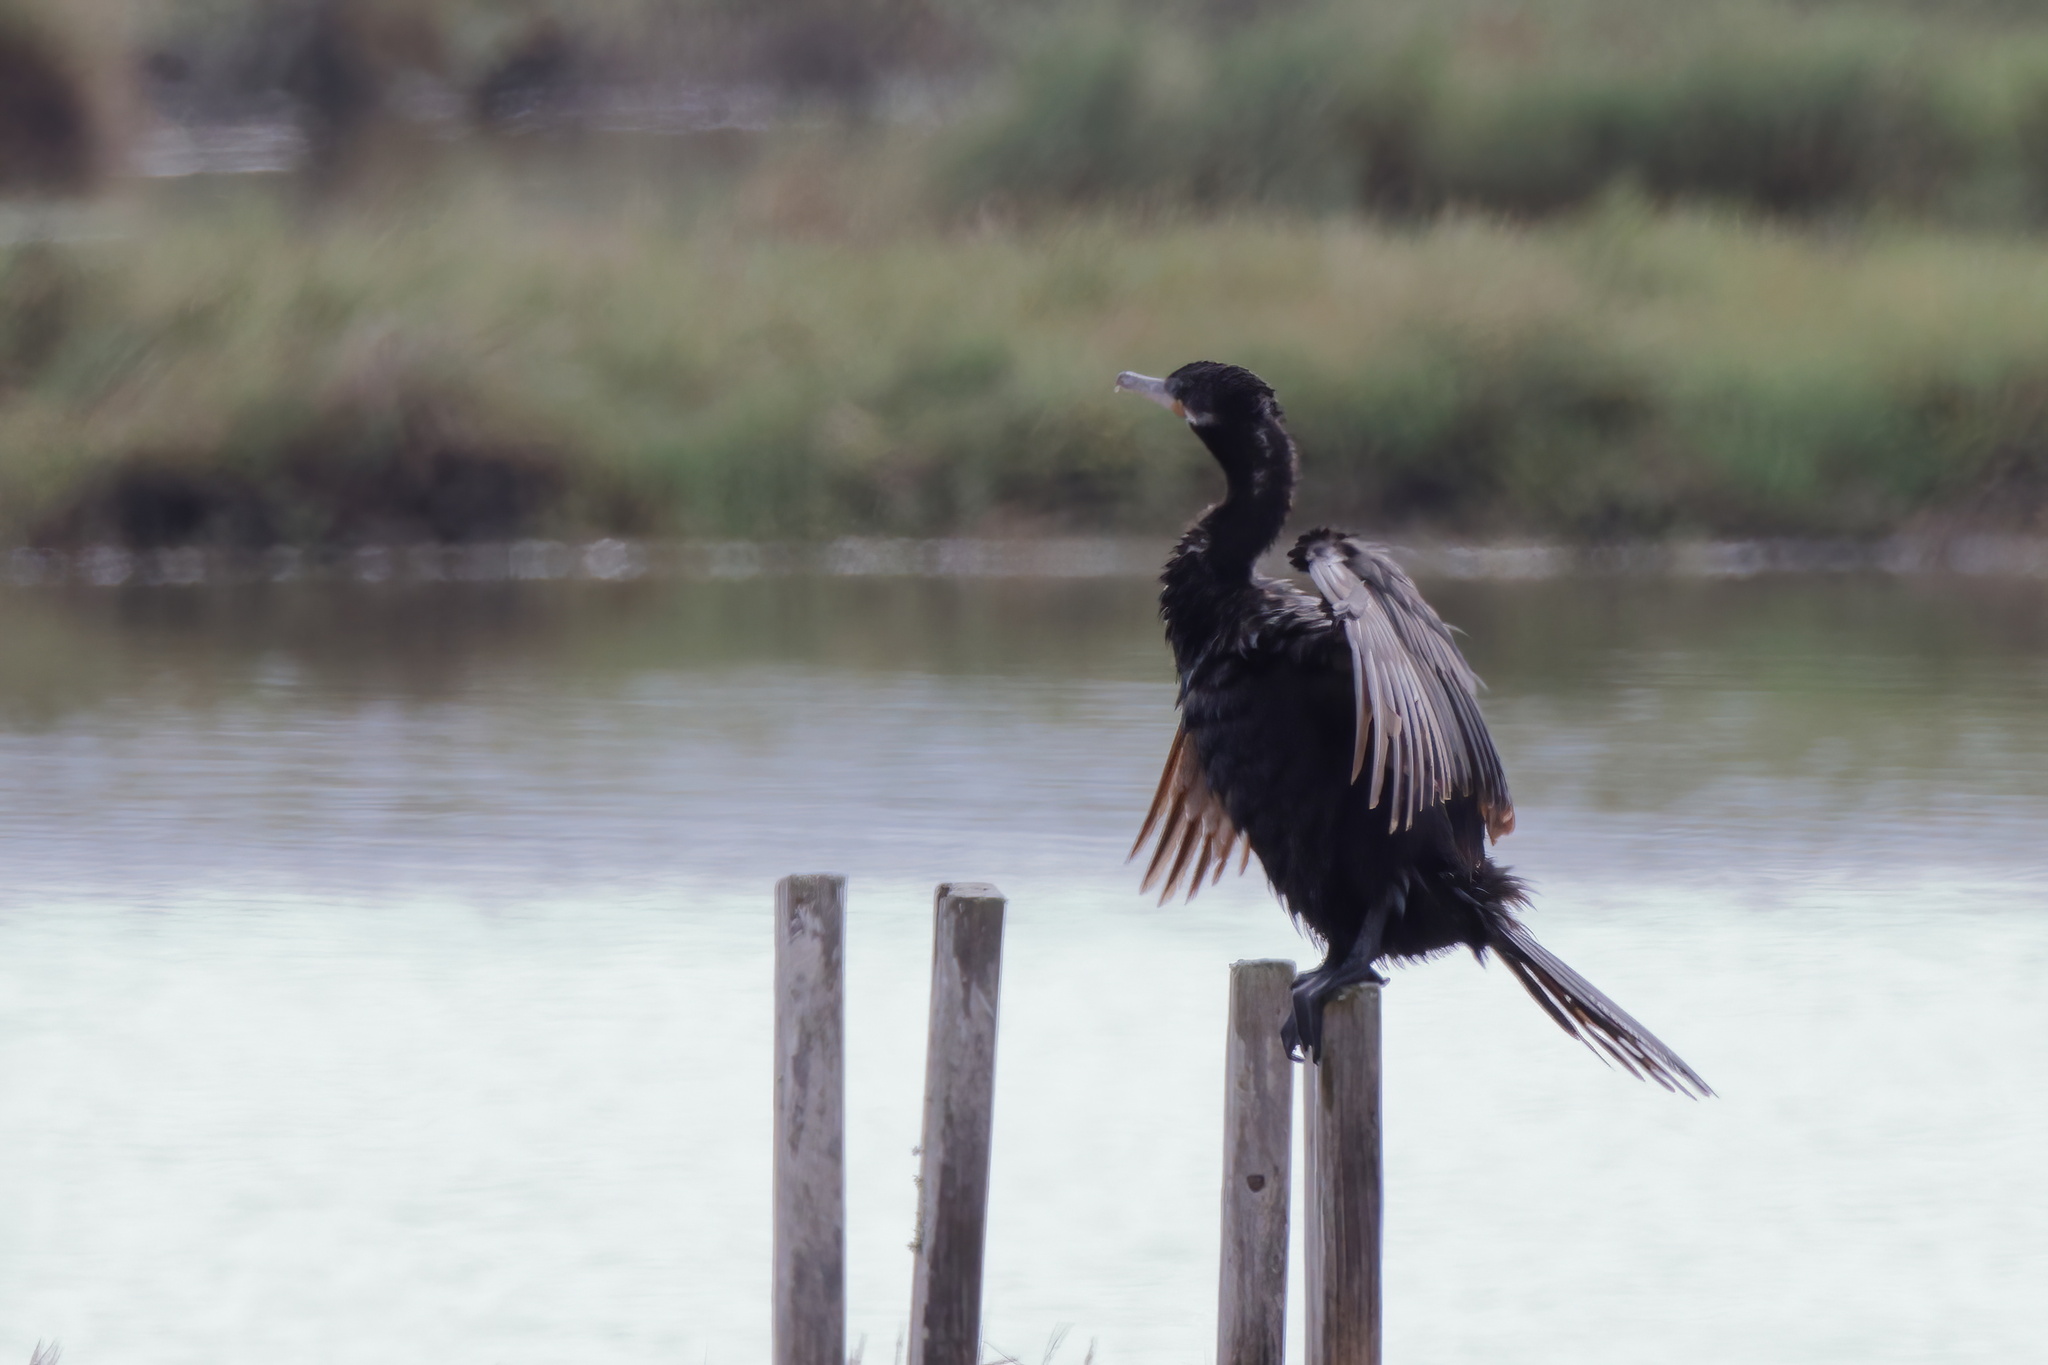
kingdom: Animalia
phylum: Chordata
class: Aves
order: Suliformes
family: Phalacrocoracidae
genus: Phalacrocorax
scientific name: Phalacrocorax brasilianus
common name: Neotropic cormorant
